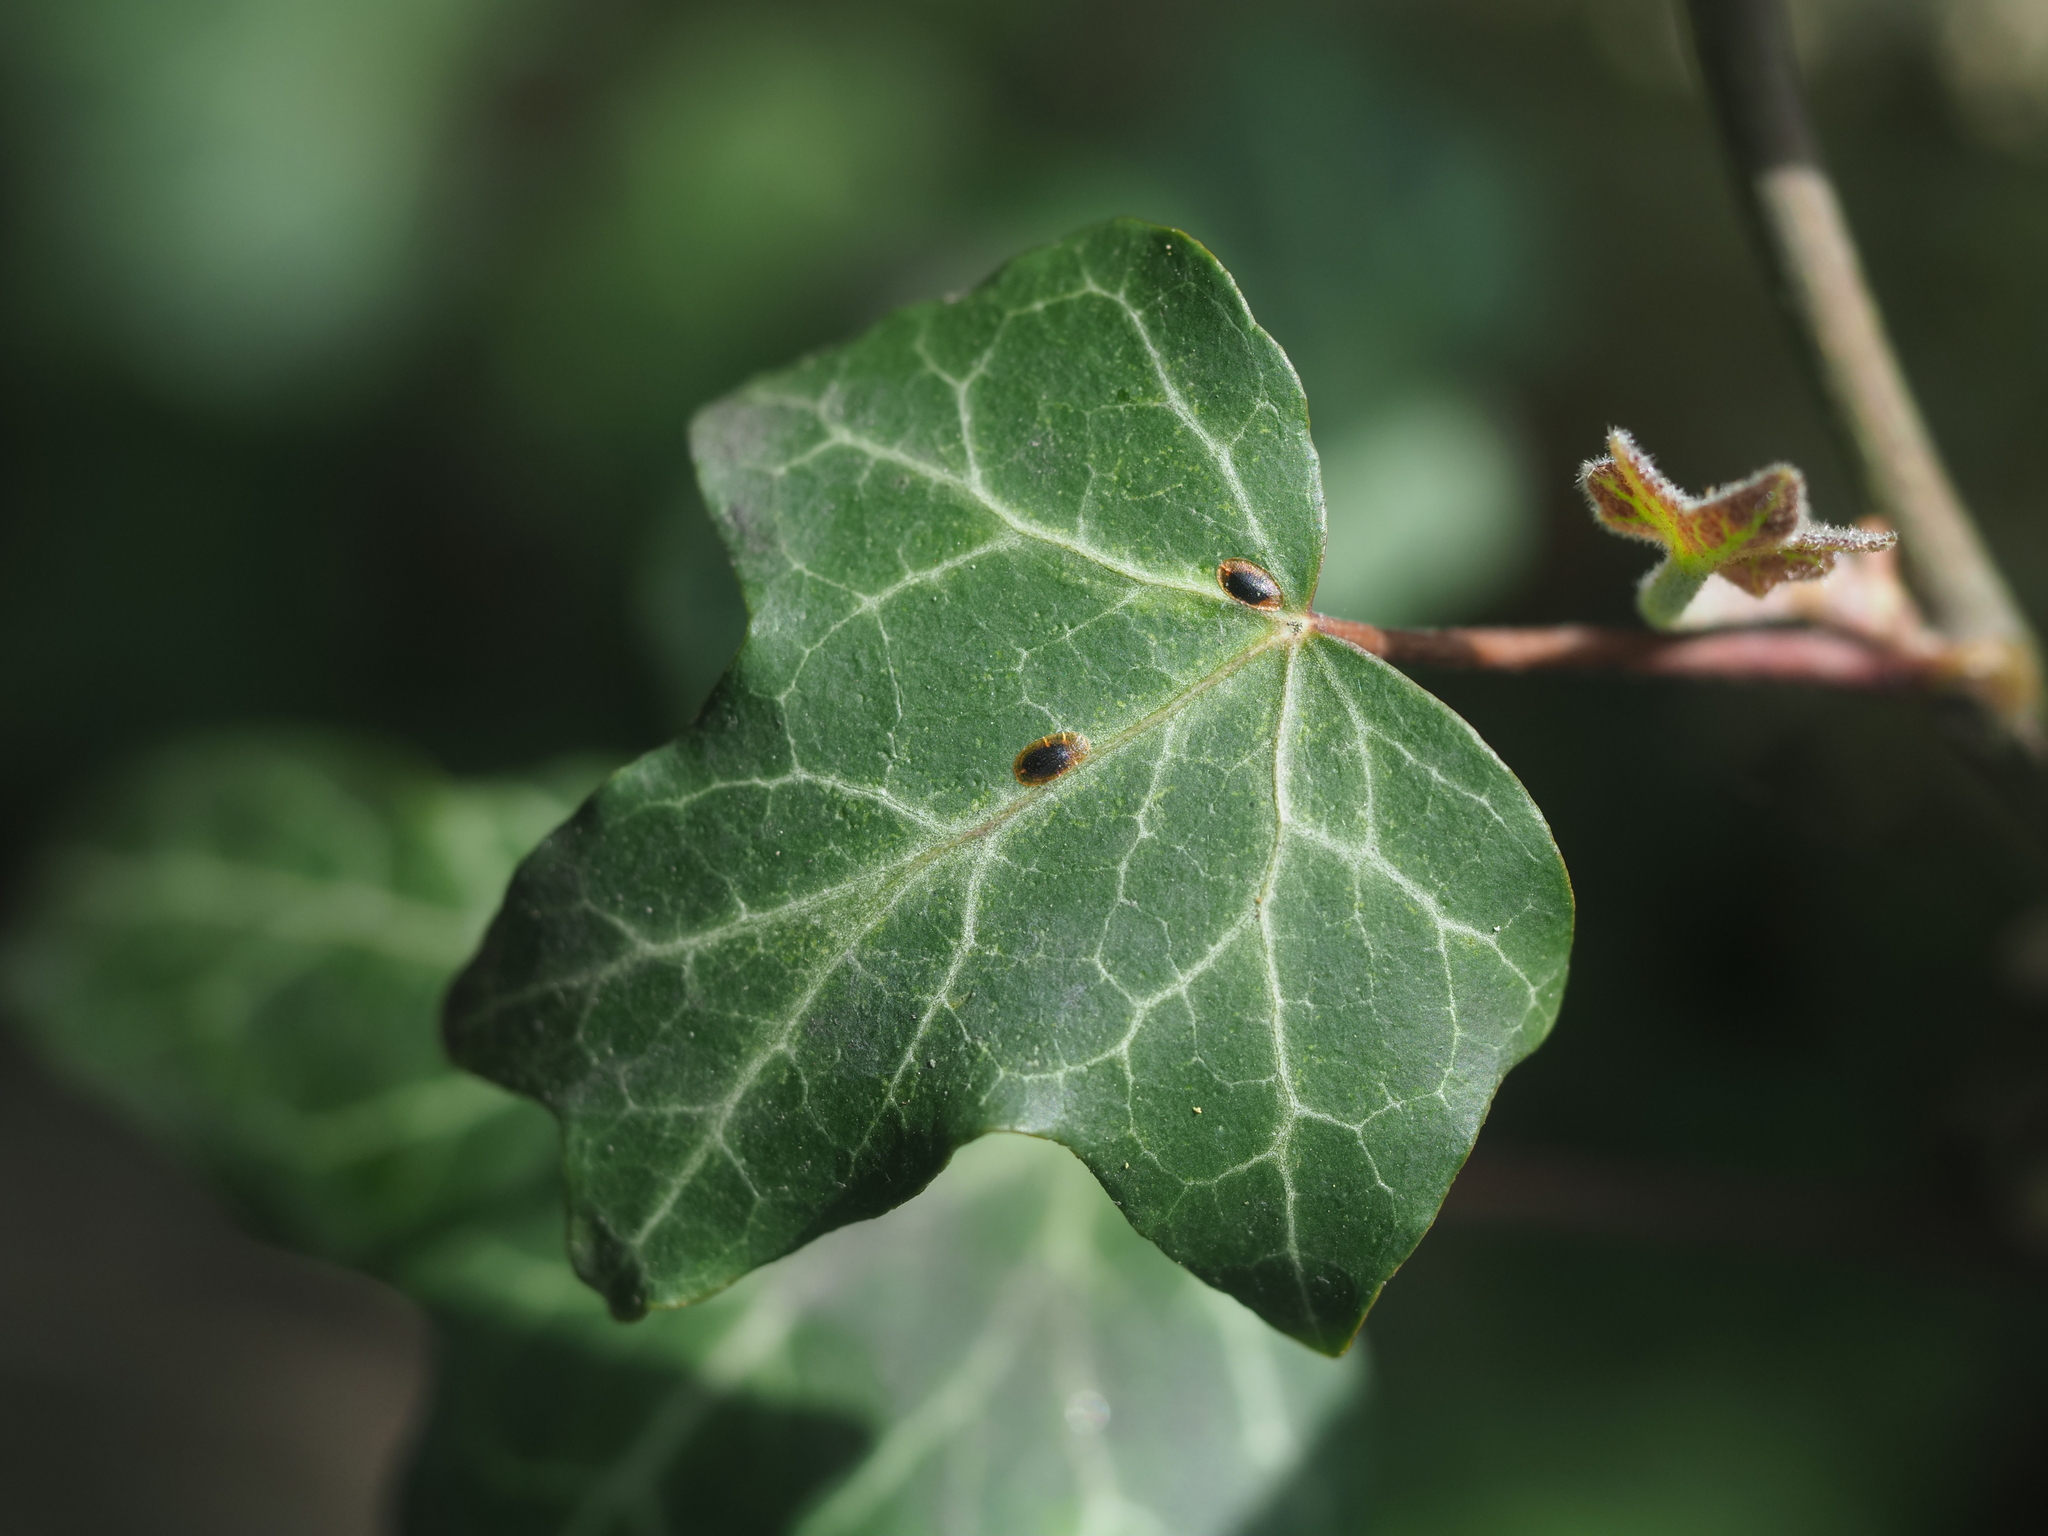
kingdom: Plantae
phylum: Tracheophyta
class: Magnoliopsida
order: Apiales
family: Araliaceae
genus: Hedera
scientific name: Hedera helix
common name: Ivy
